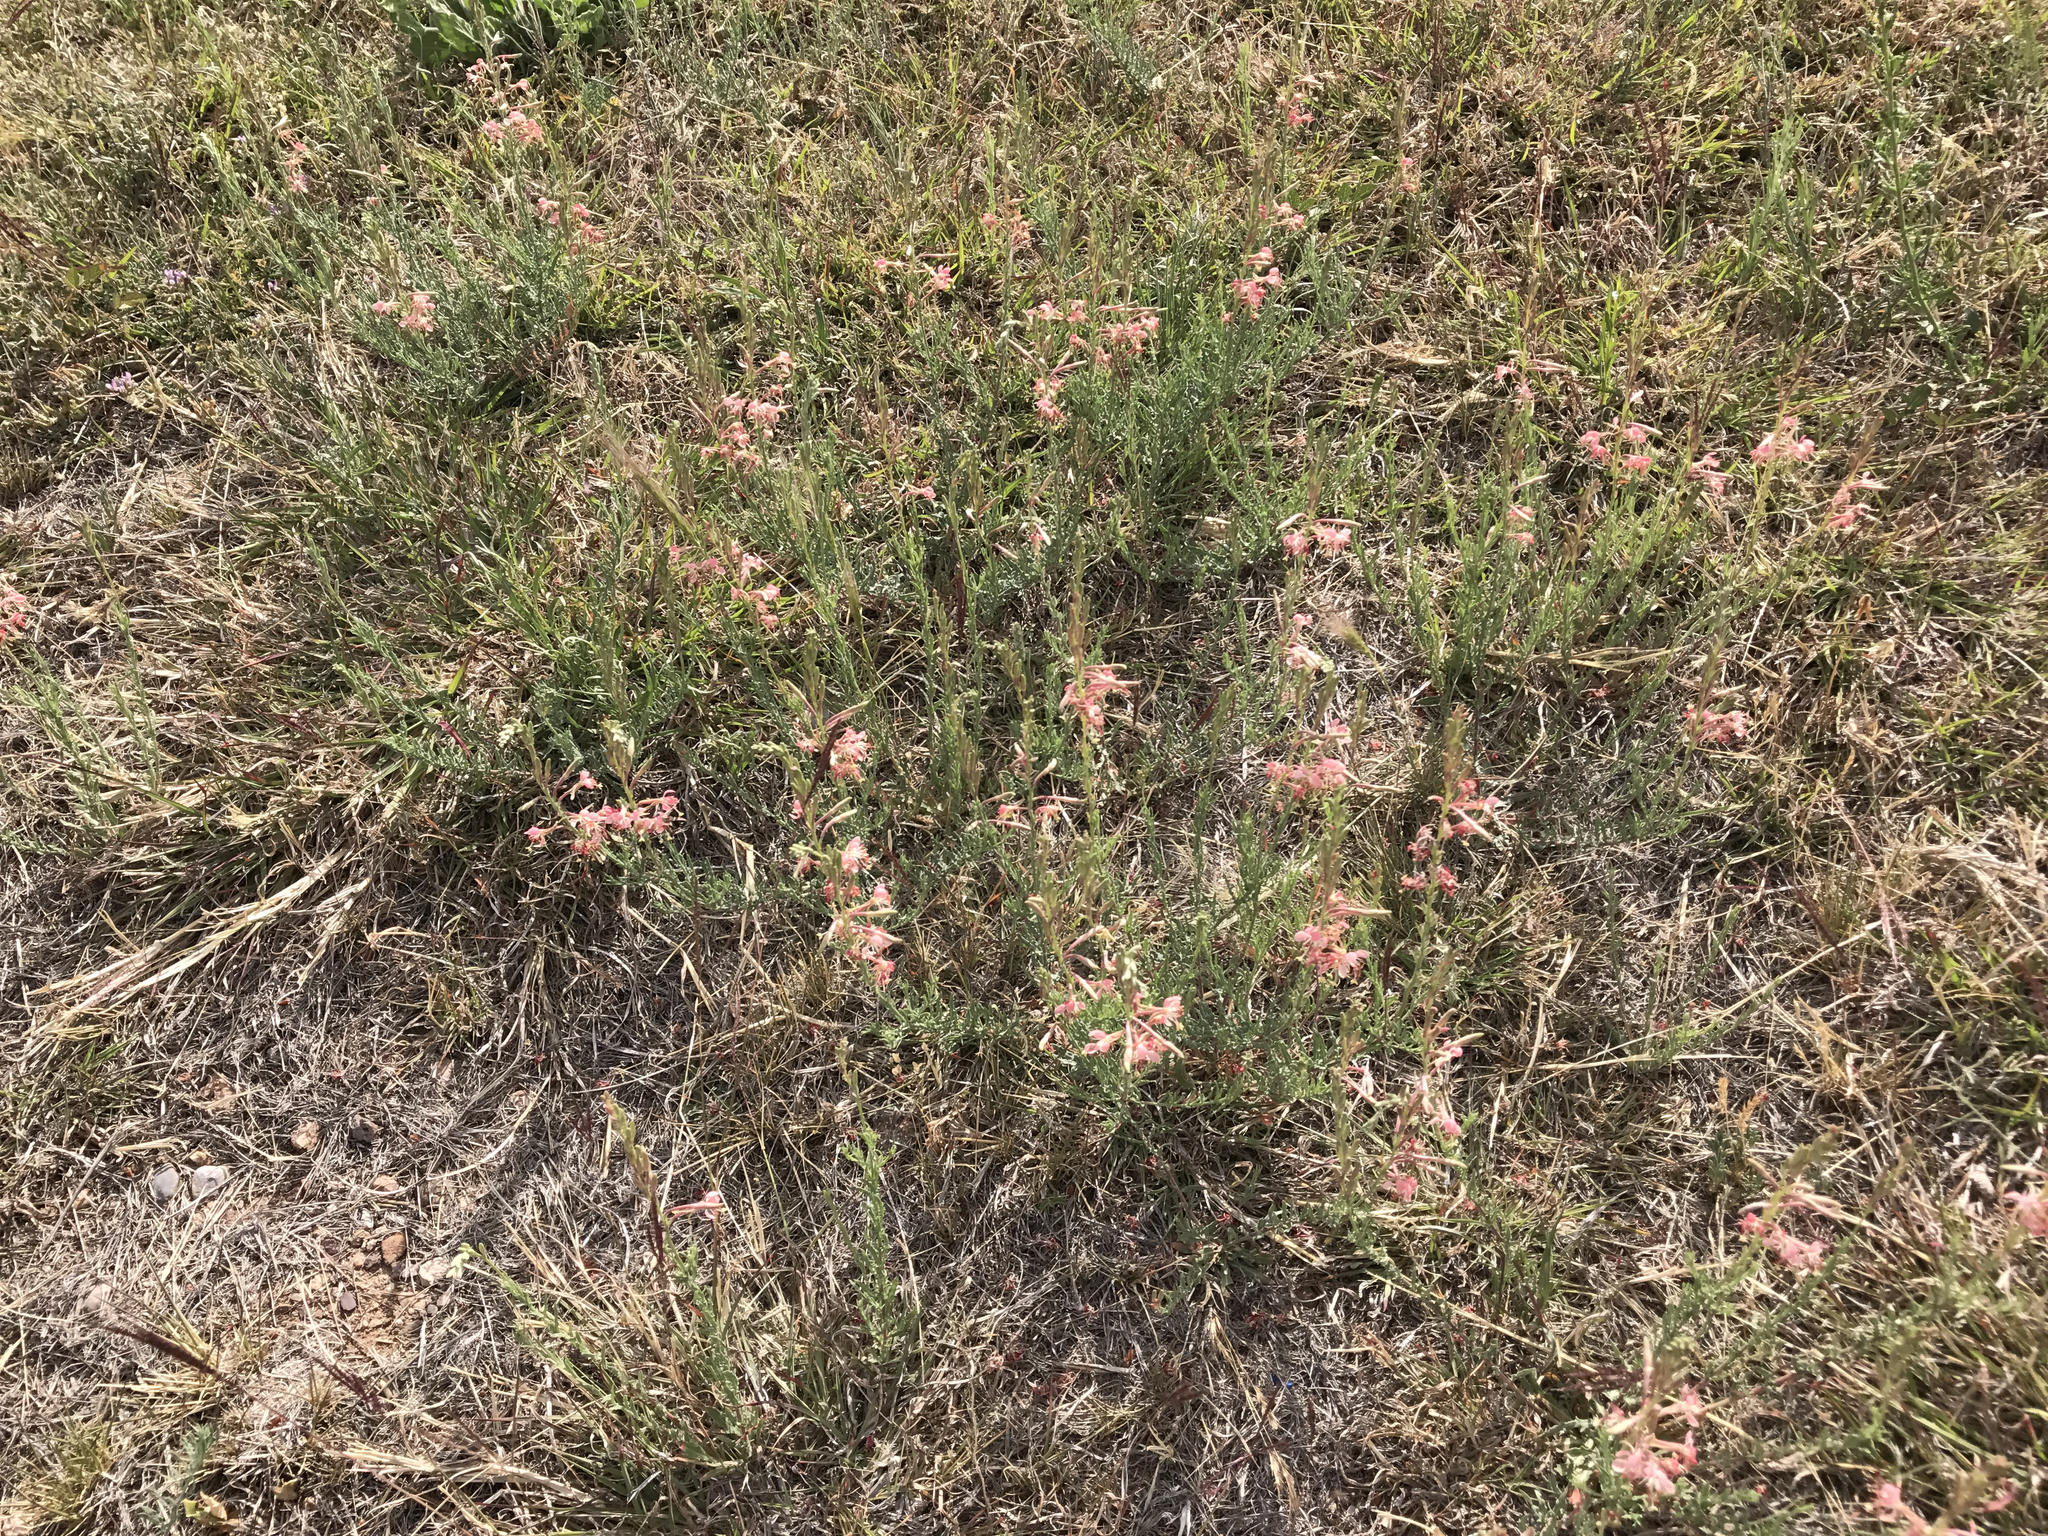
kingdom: Plantae
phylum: Tracheophyta
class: Magnoliopsida
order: Myrtales
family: Onagraceae
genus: Oenothera
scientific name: Oenothera suffrutescens
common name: Scarlet beeblossom
